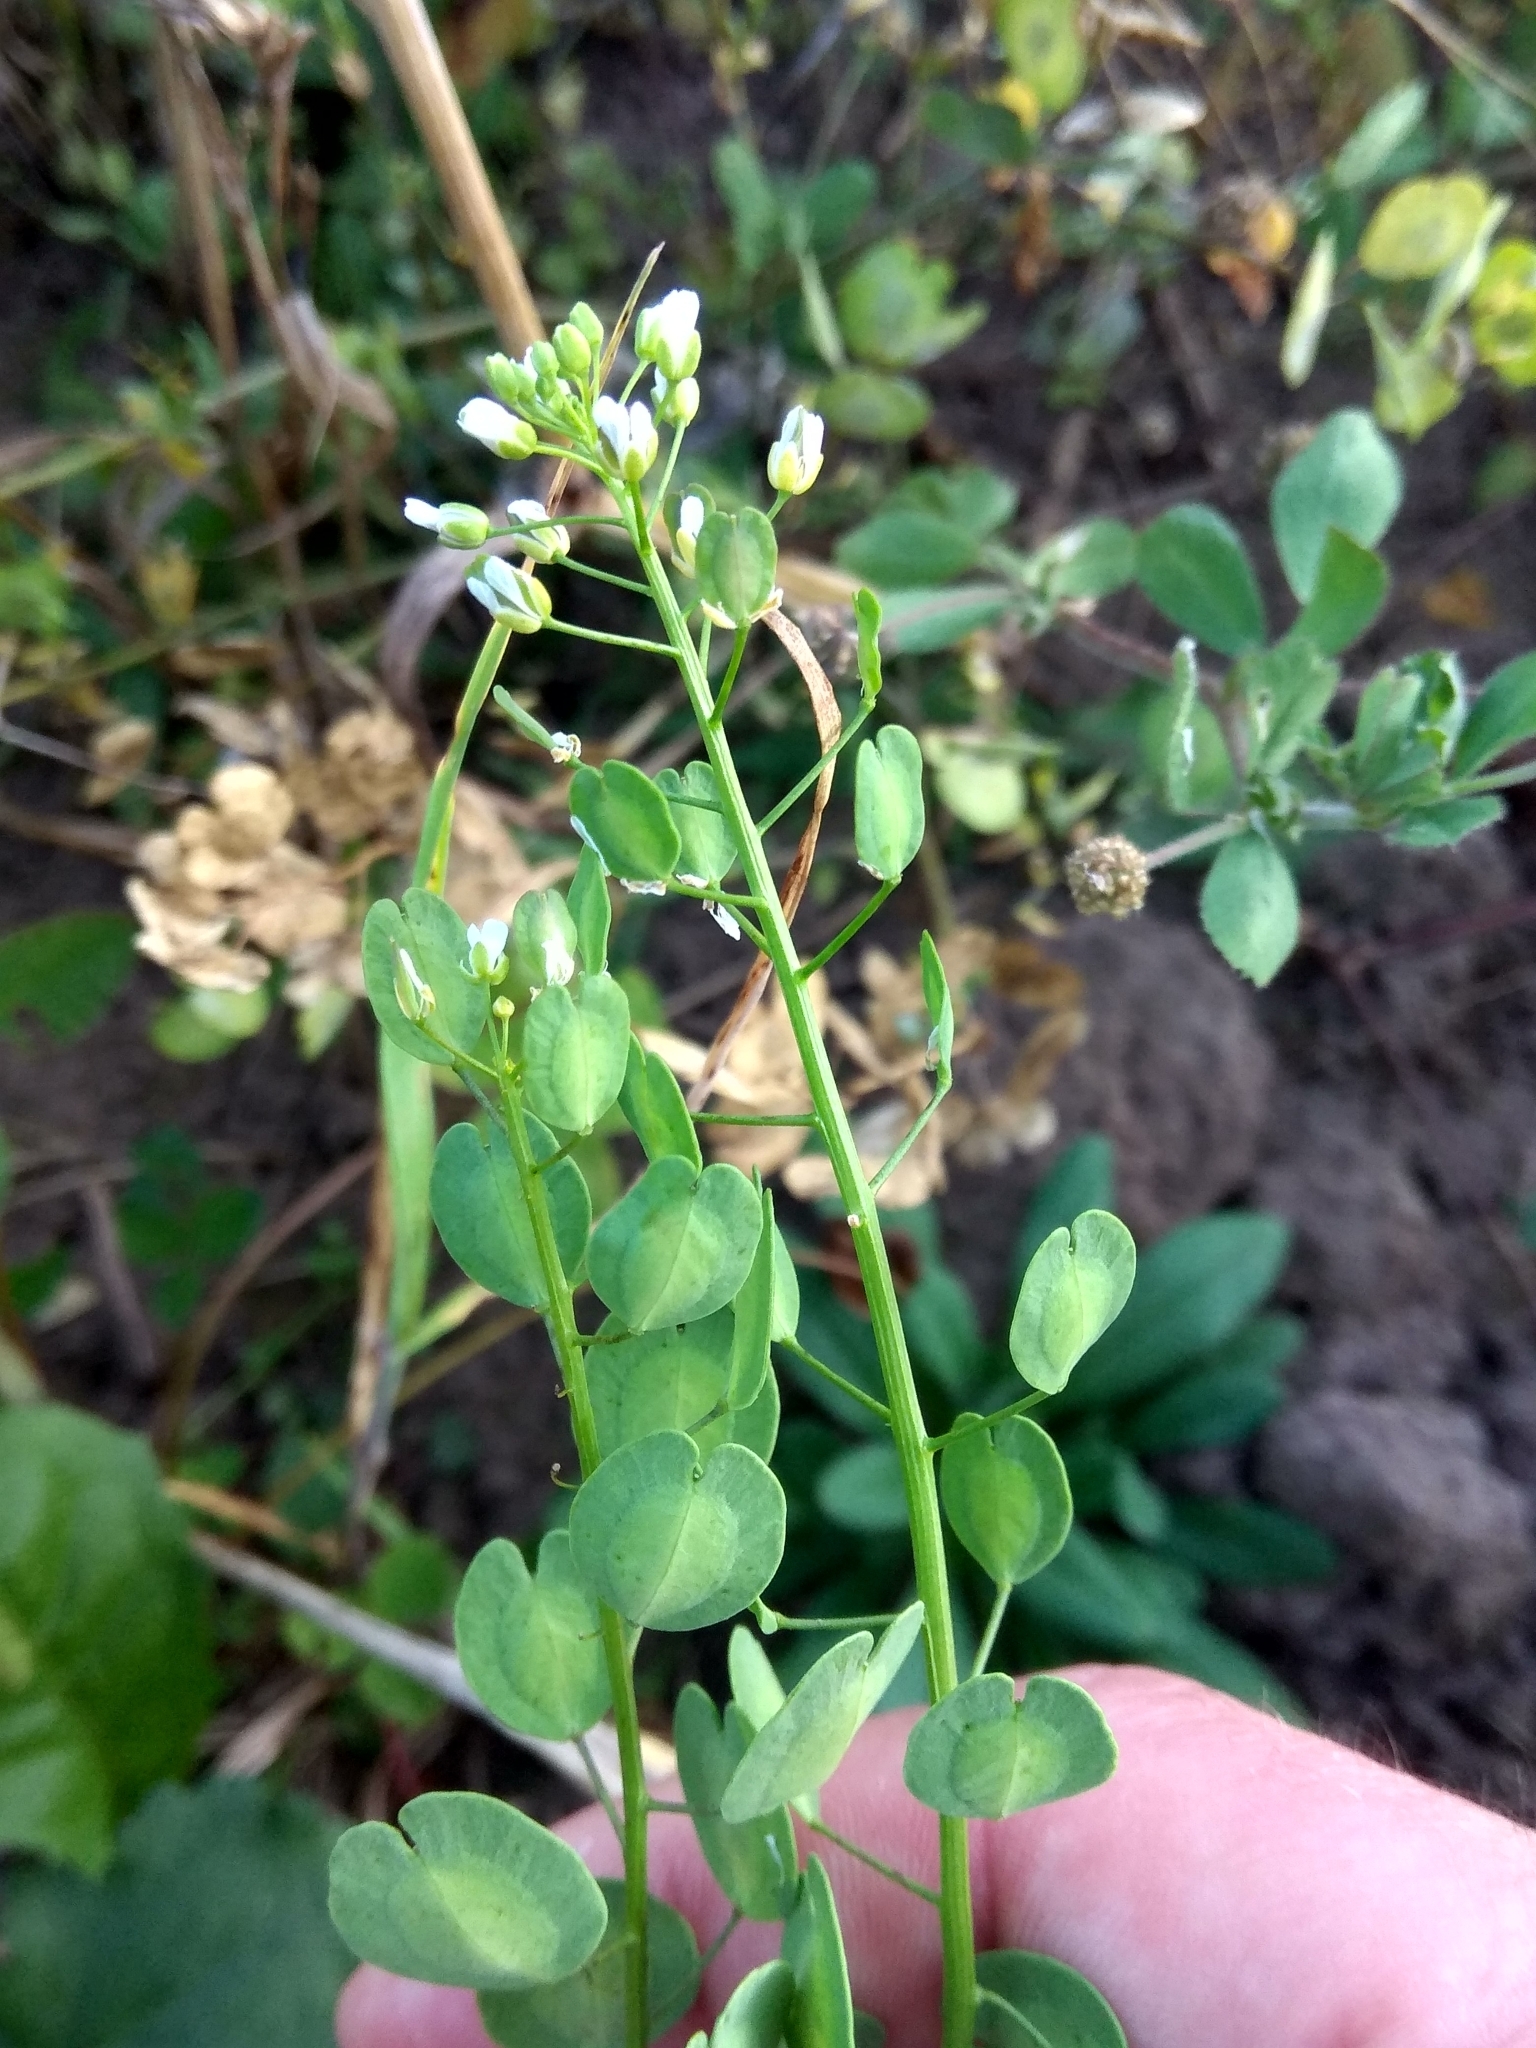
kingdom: Plantae
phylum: Tracheophyta
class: Magnoliopsida
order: Brassicales
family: Brassicaceae
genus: Thlaspi
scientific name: Thlaspi arvense
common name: Field pennycress
